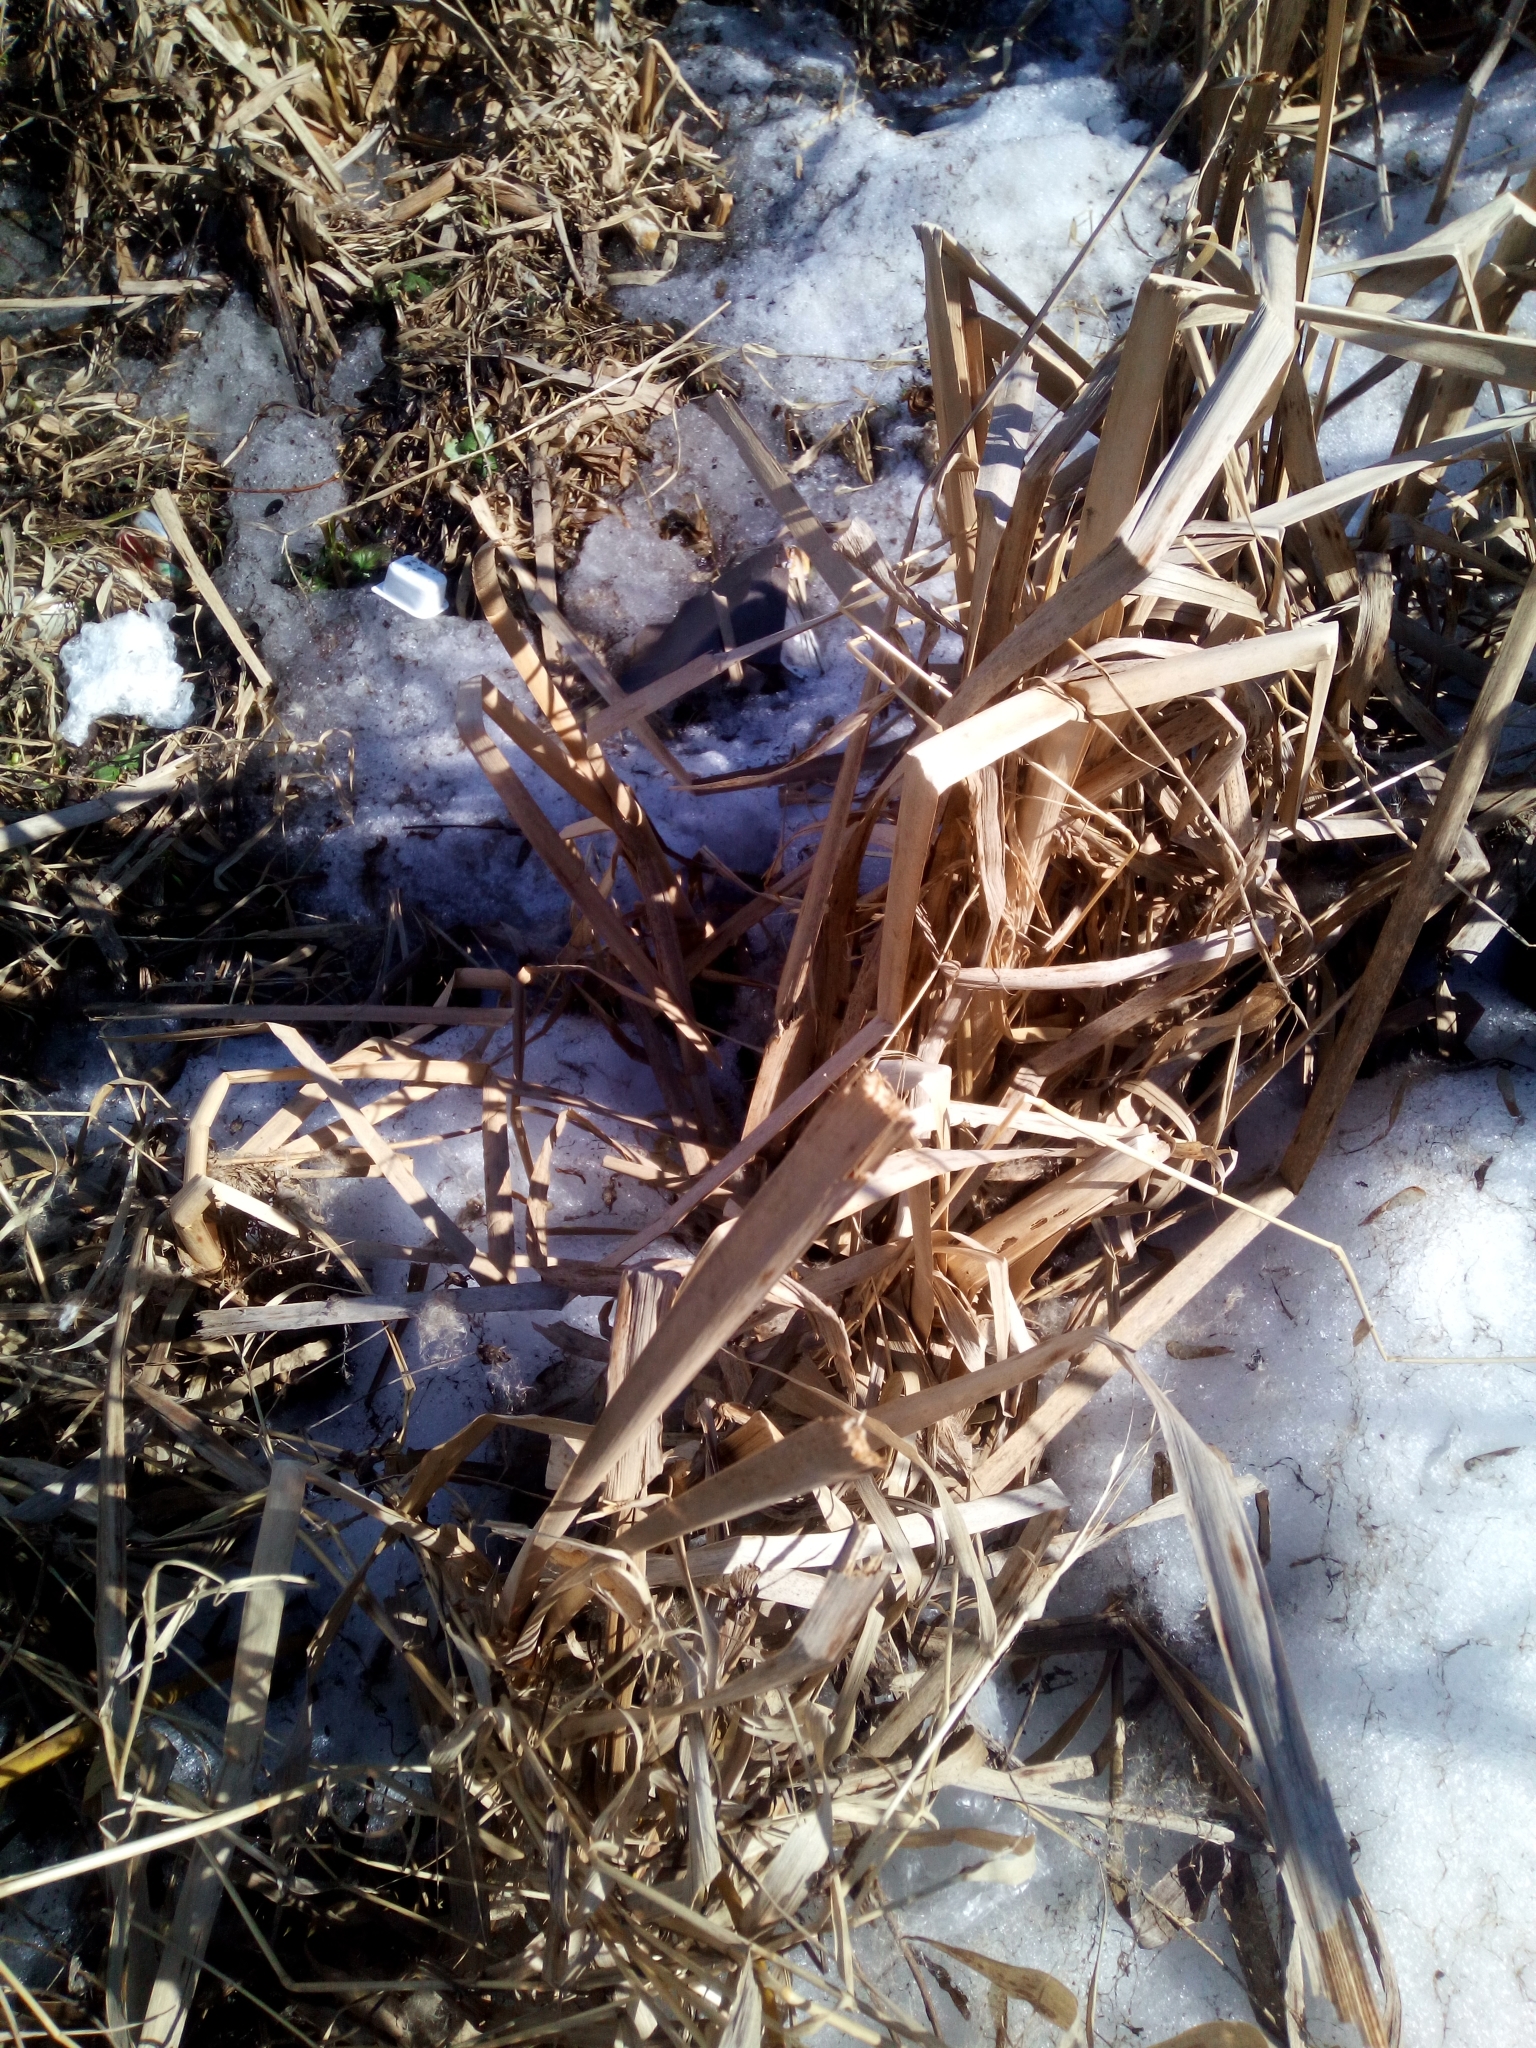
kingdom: Plantae
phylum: Tracheophyta
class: Liliopsida
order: Poales
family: Typhaceae
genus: Typha
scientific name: Typha latifolia
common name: Broadleaf cattail
